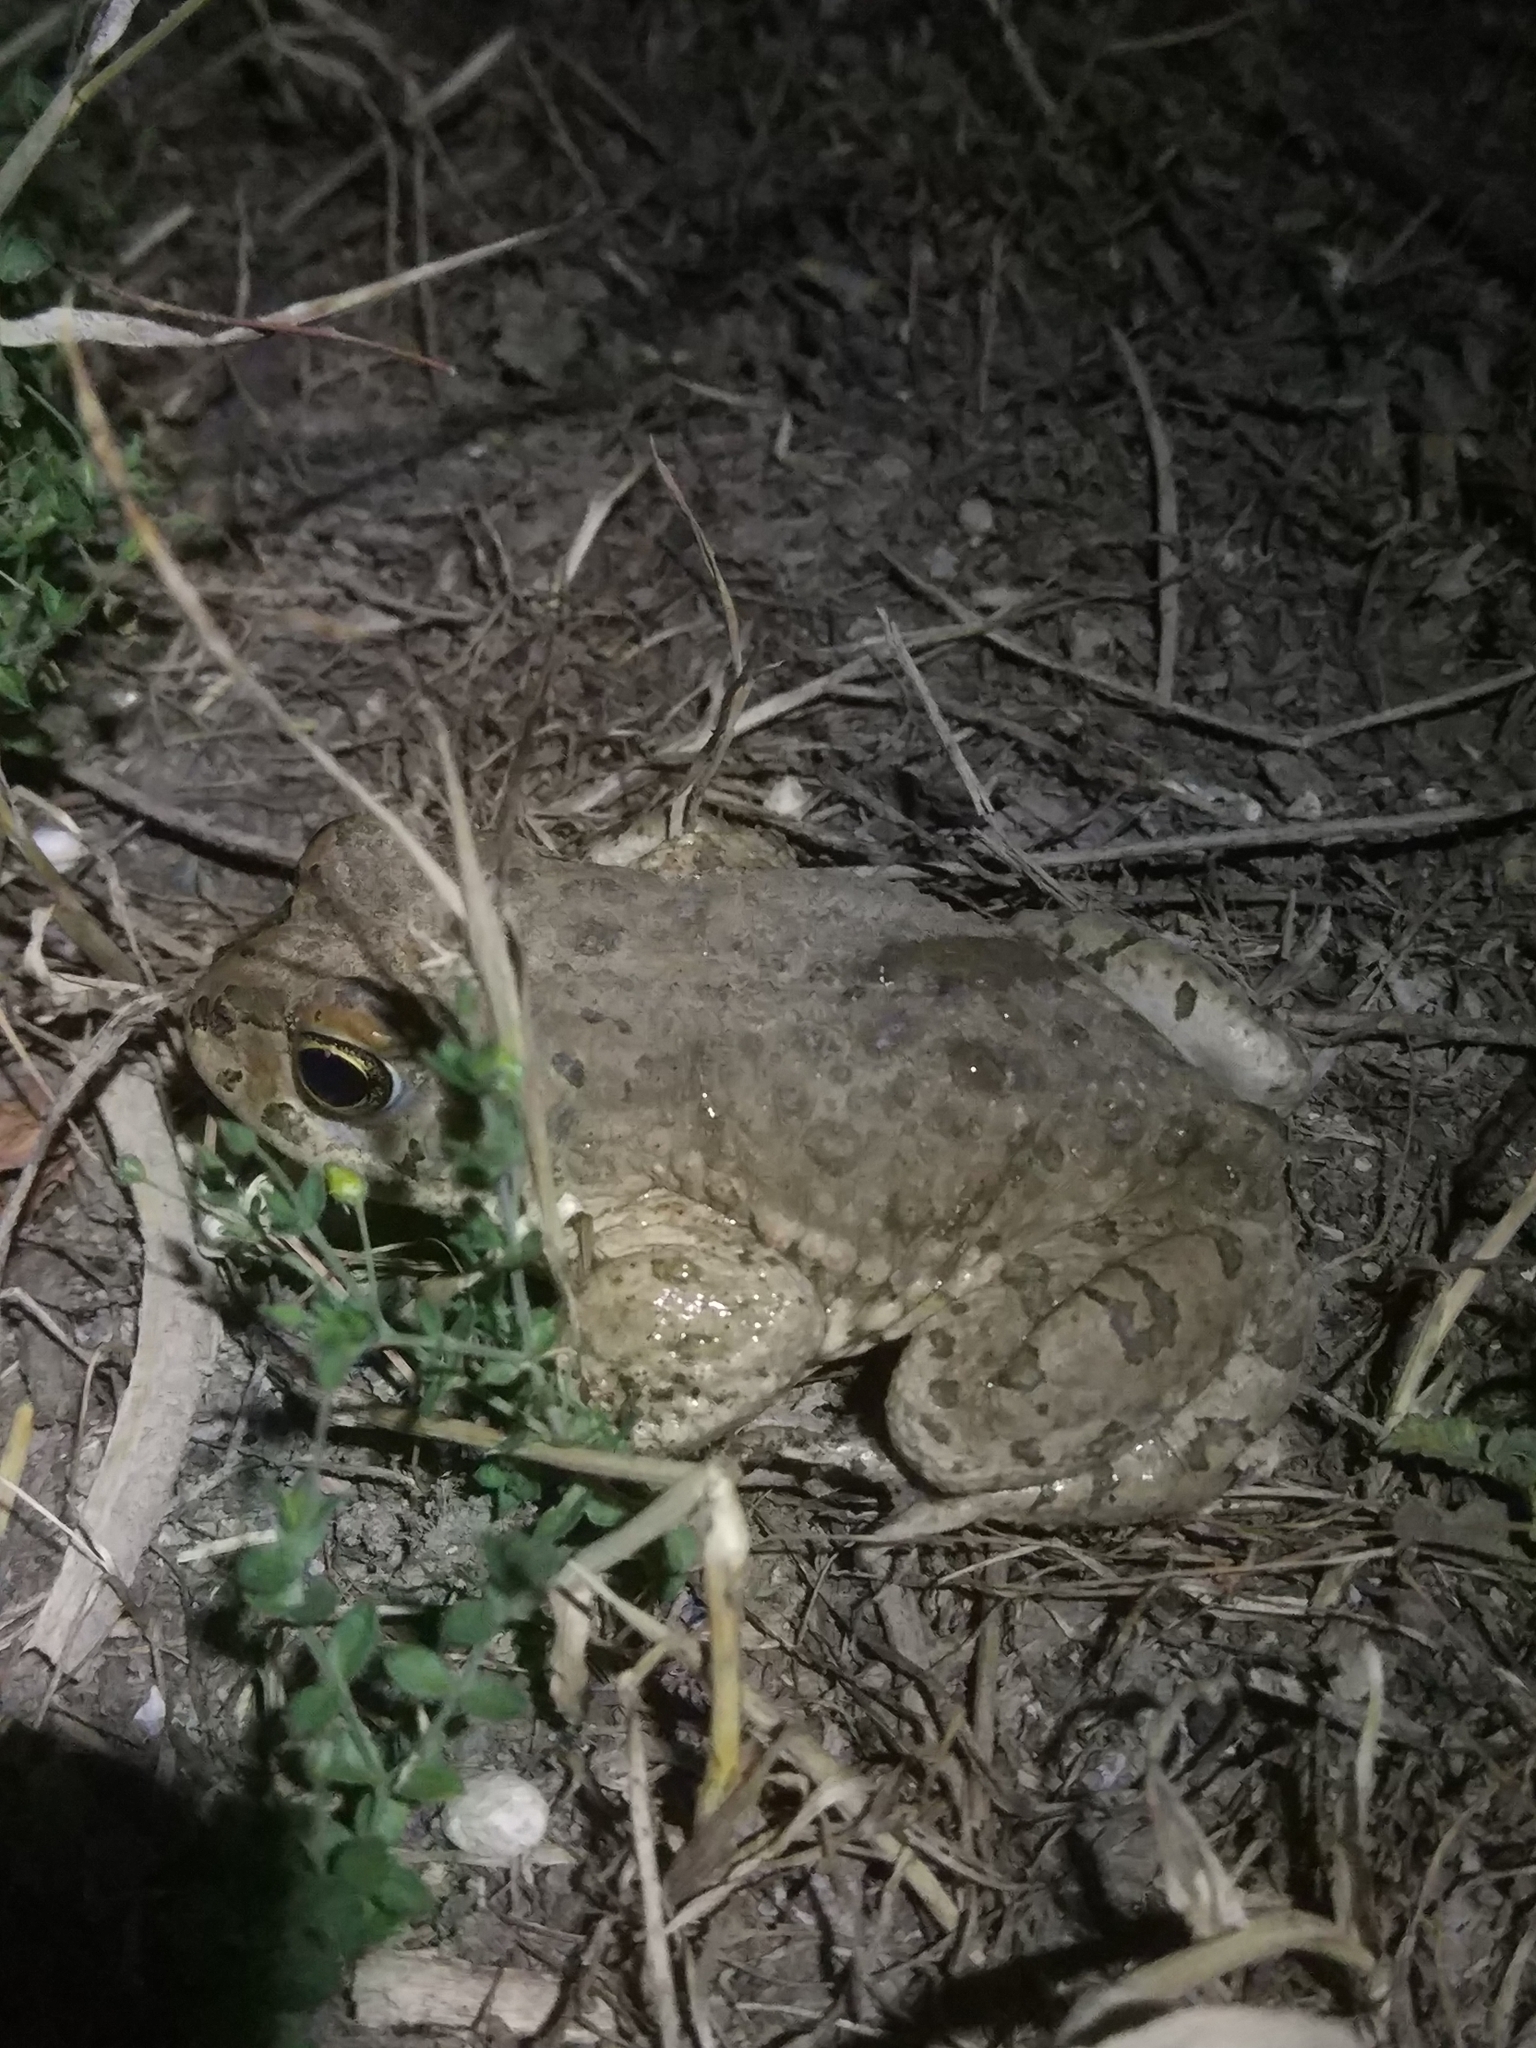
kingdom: Animalia
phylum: Chordata
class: Amphibia
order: Anura
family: Bufonidae
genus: Bufotes
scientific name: Bufotes viridis
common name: European green toad
